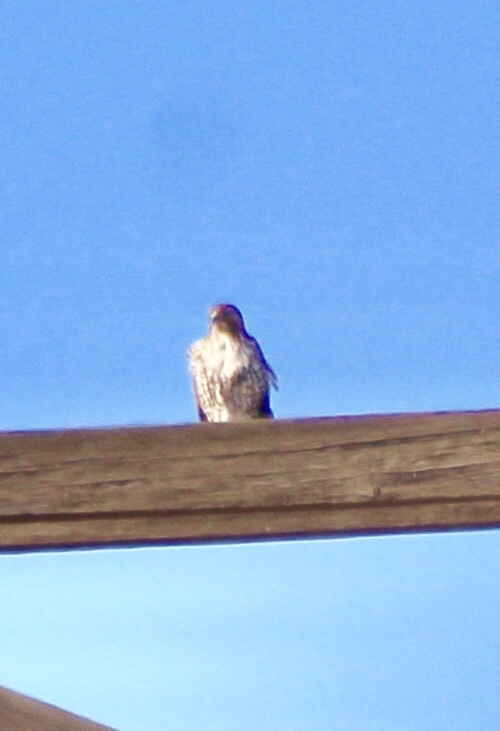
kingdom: Animalia
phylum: Chordata
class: Aves
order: Accipitriformes
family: Accipitridae
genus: Buteo
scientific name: Buteo jamaicensis
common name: Red-tailed hawk
